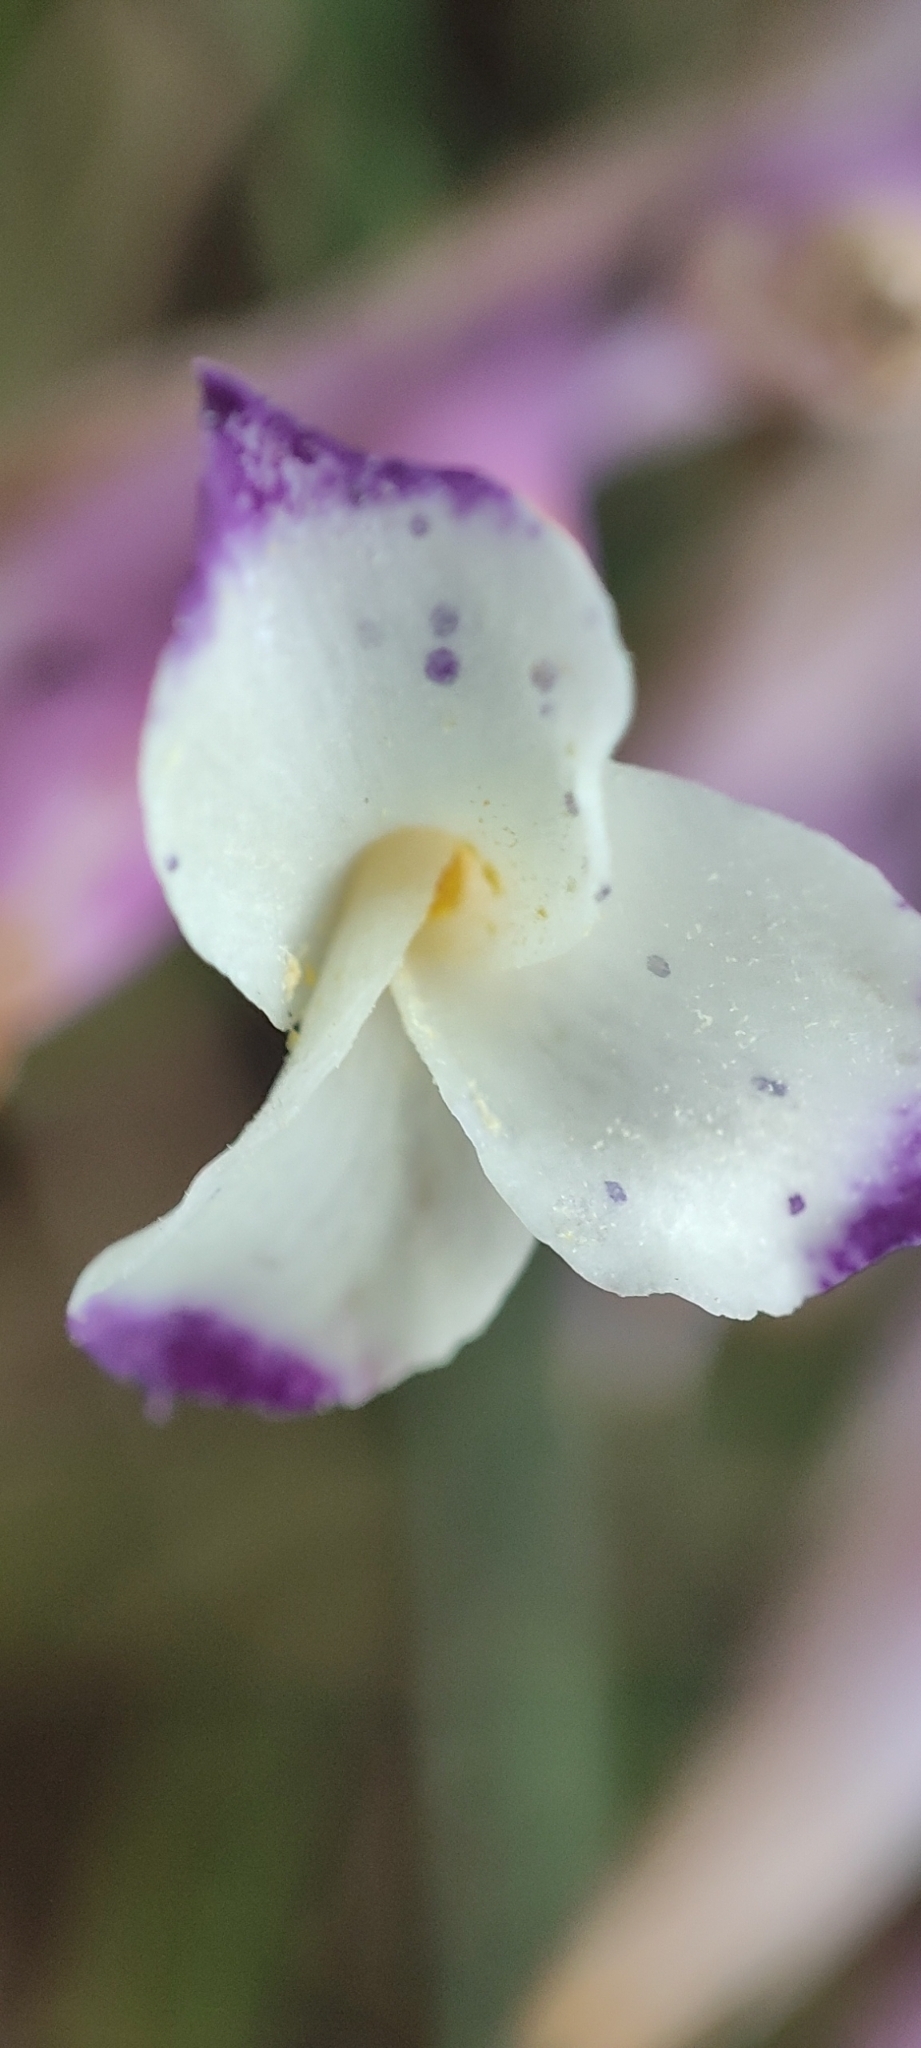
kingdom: Plantae
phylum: Tracheophyta
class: Liliopsida
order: Poales
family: Bromeliaceae
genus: Tillandsia
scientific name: Tillandsia straminea
